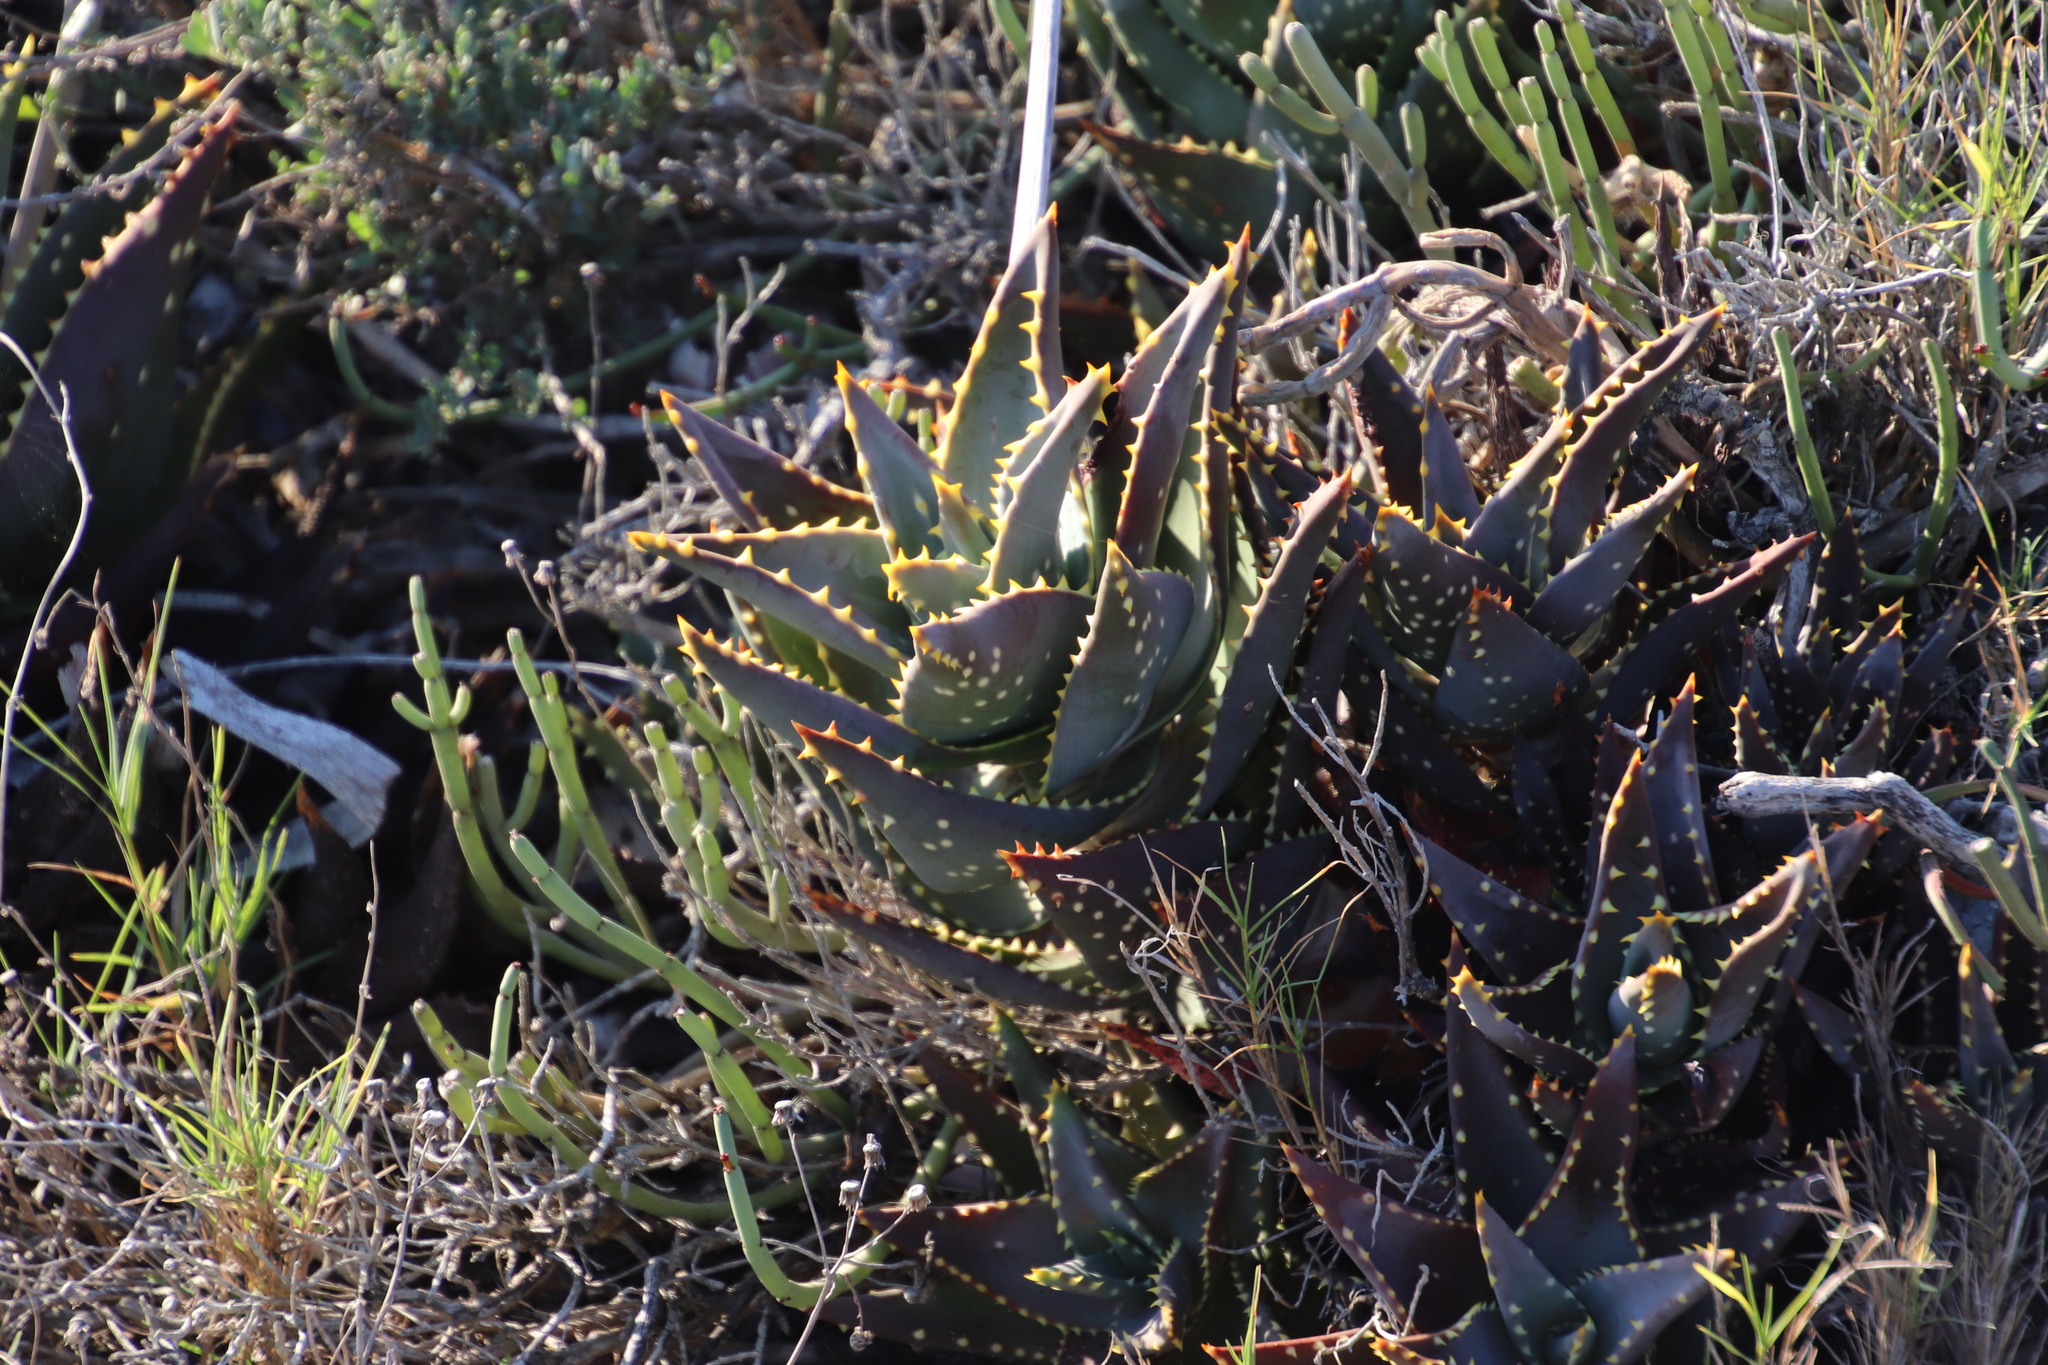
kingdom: Plantae
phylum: Tracheophyta
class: Liliopsida
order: Asparagales
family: Asphodelaceae
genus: Aloe
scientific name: Aloe distans
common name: Short-leaved aloe
